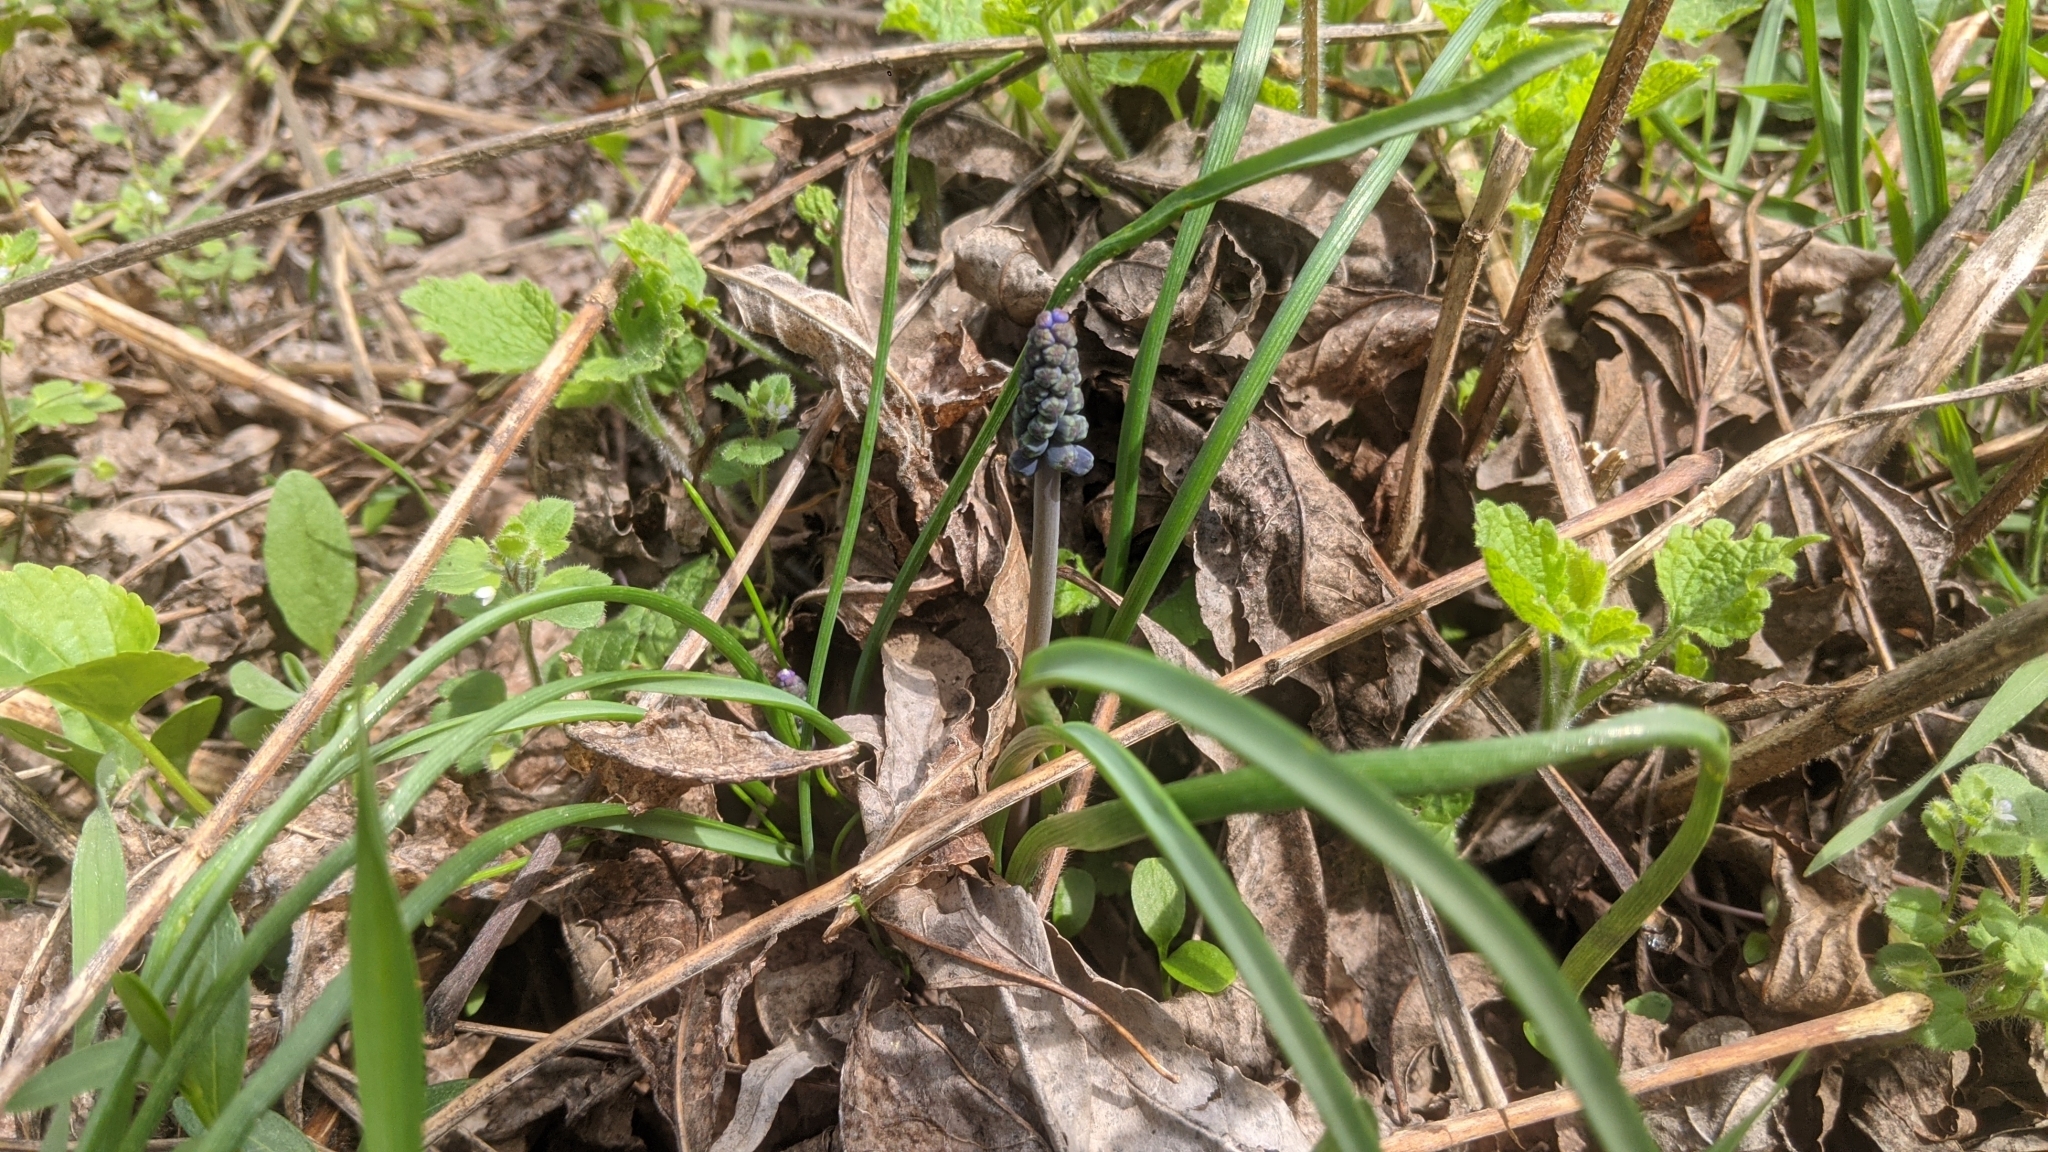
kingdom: Plantae
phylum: Tracheophyta
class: Liliopsida
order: Asparagales
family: Asparagaceae
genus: Muscari
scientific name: Muscari neglectum
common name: Grape-hyacinth
